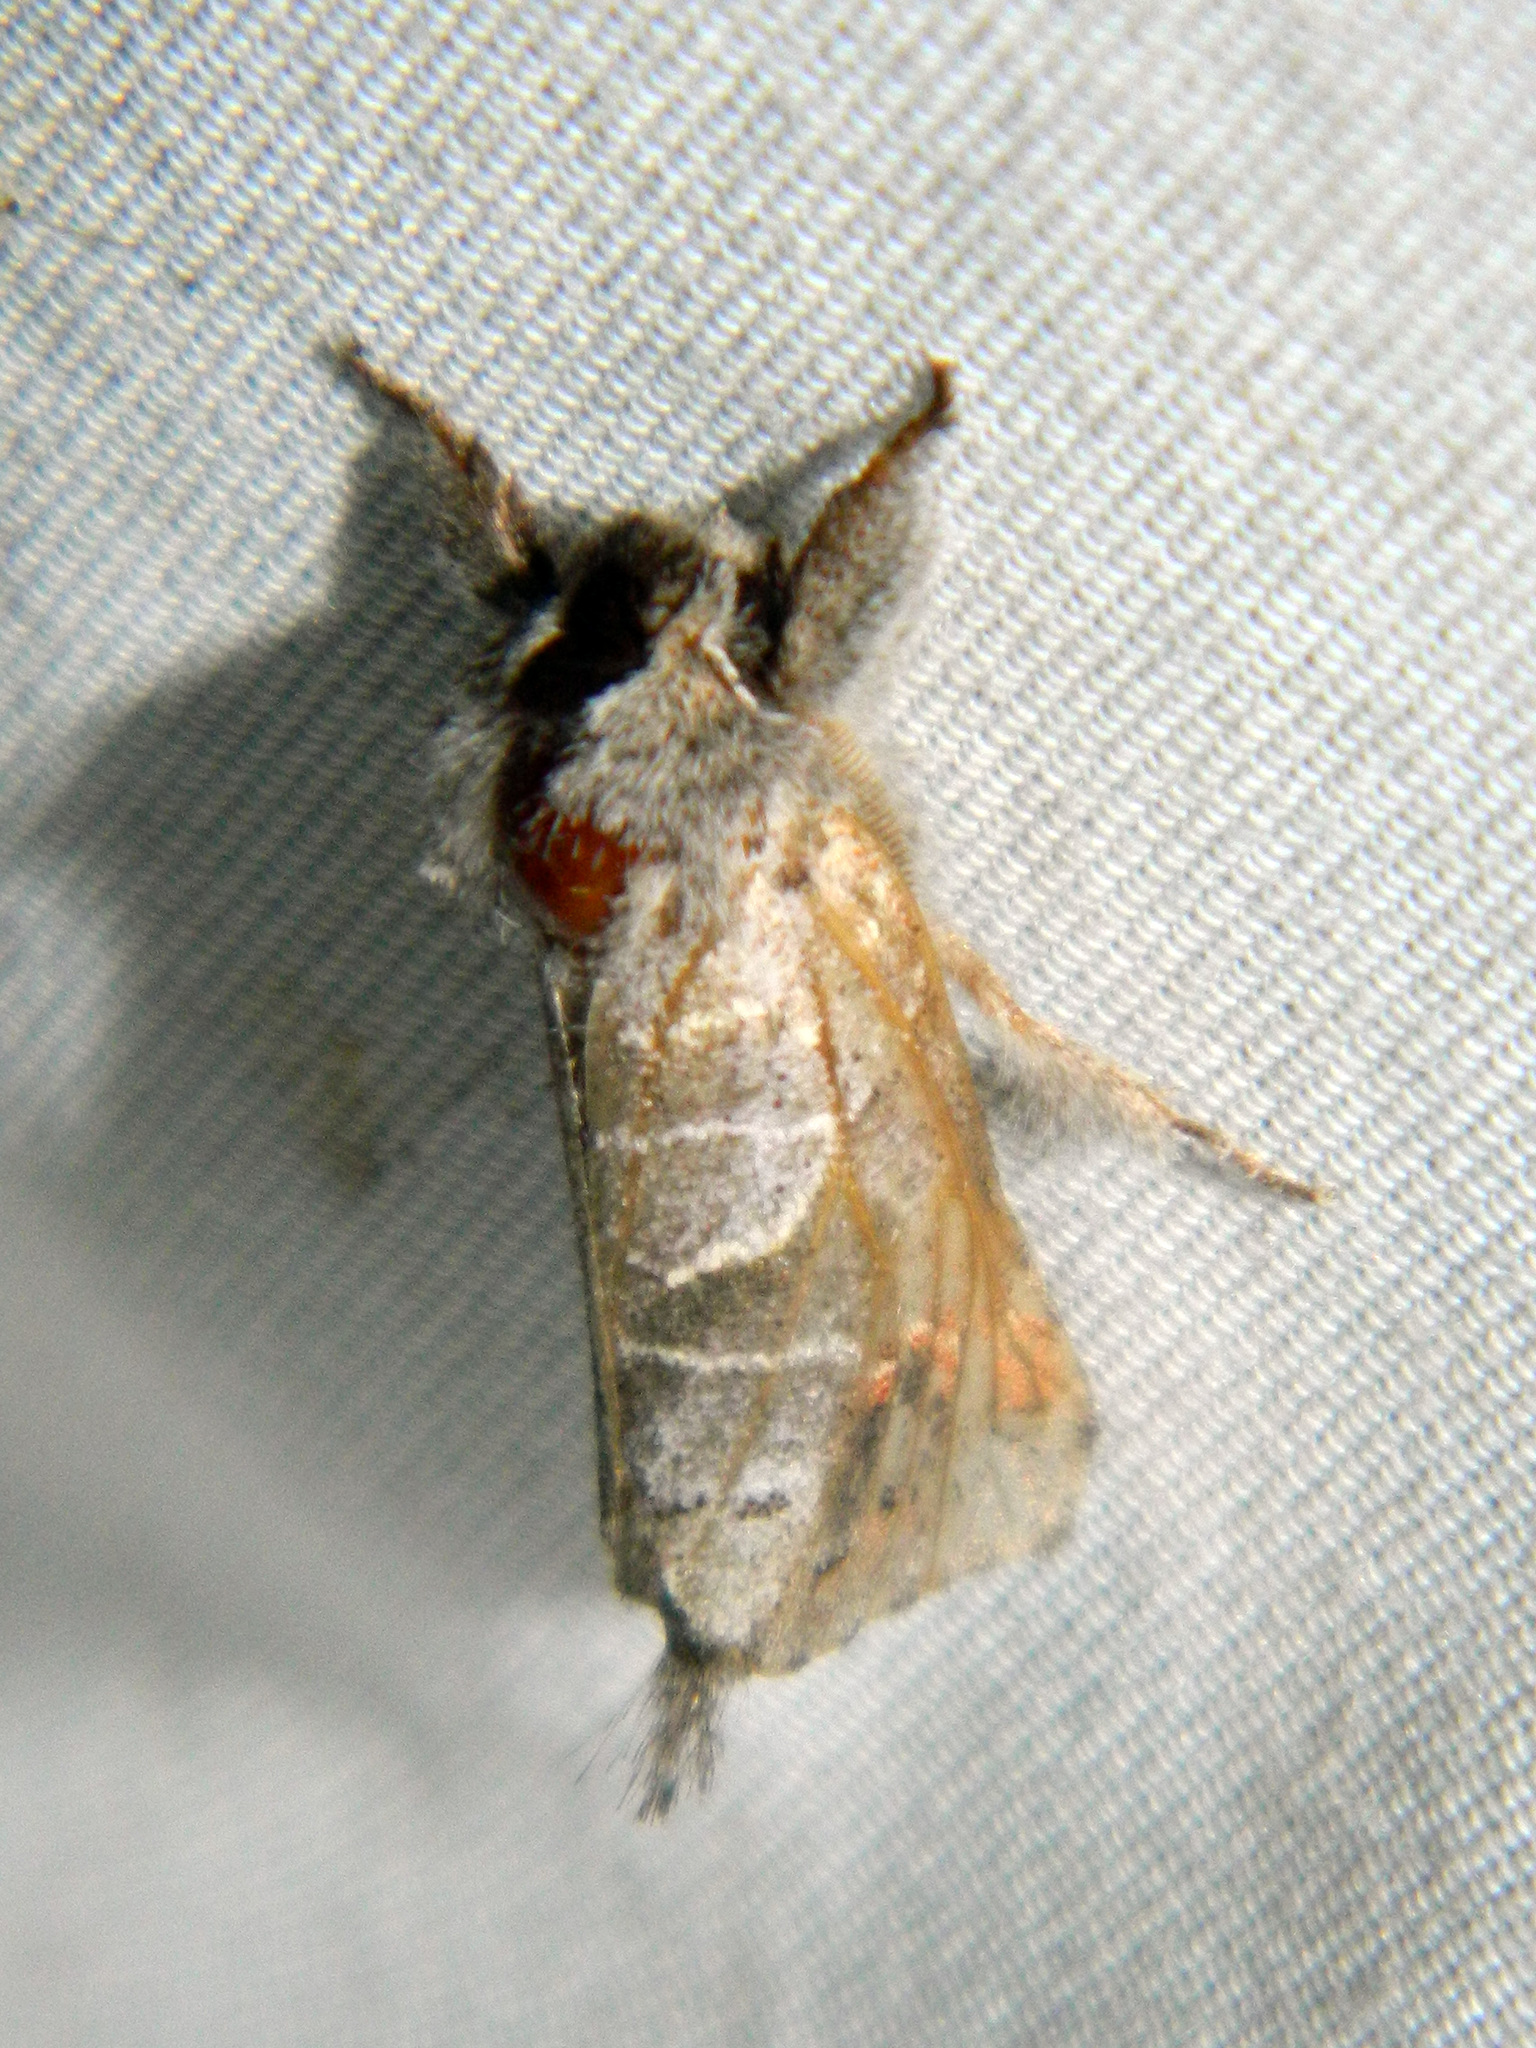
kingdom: Animalia
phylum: Arthropoda
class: Insecta
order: Lepidoptera
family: Notodontidae
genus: Clostera
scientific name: Clostera apicalis
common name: Apical prominent
